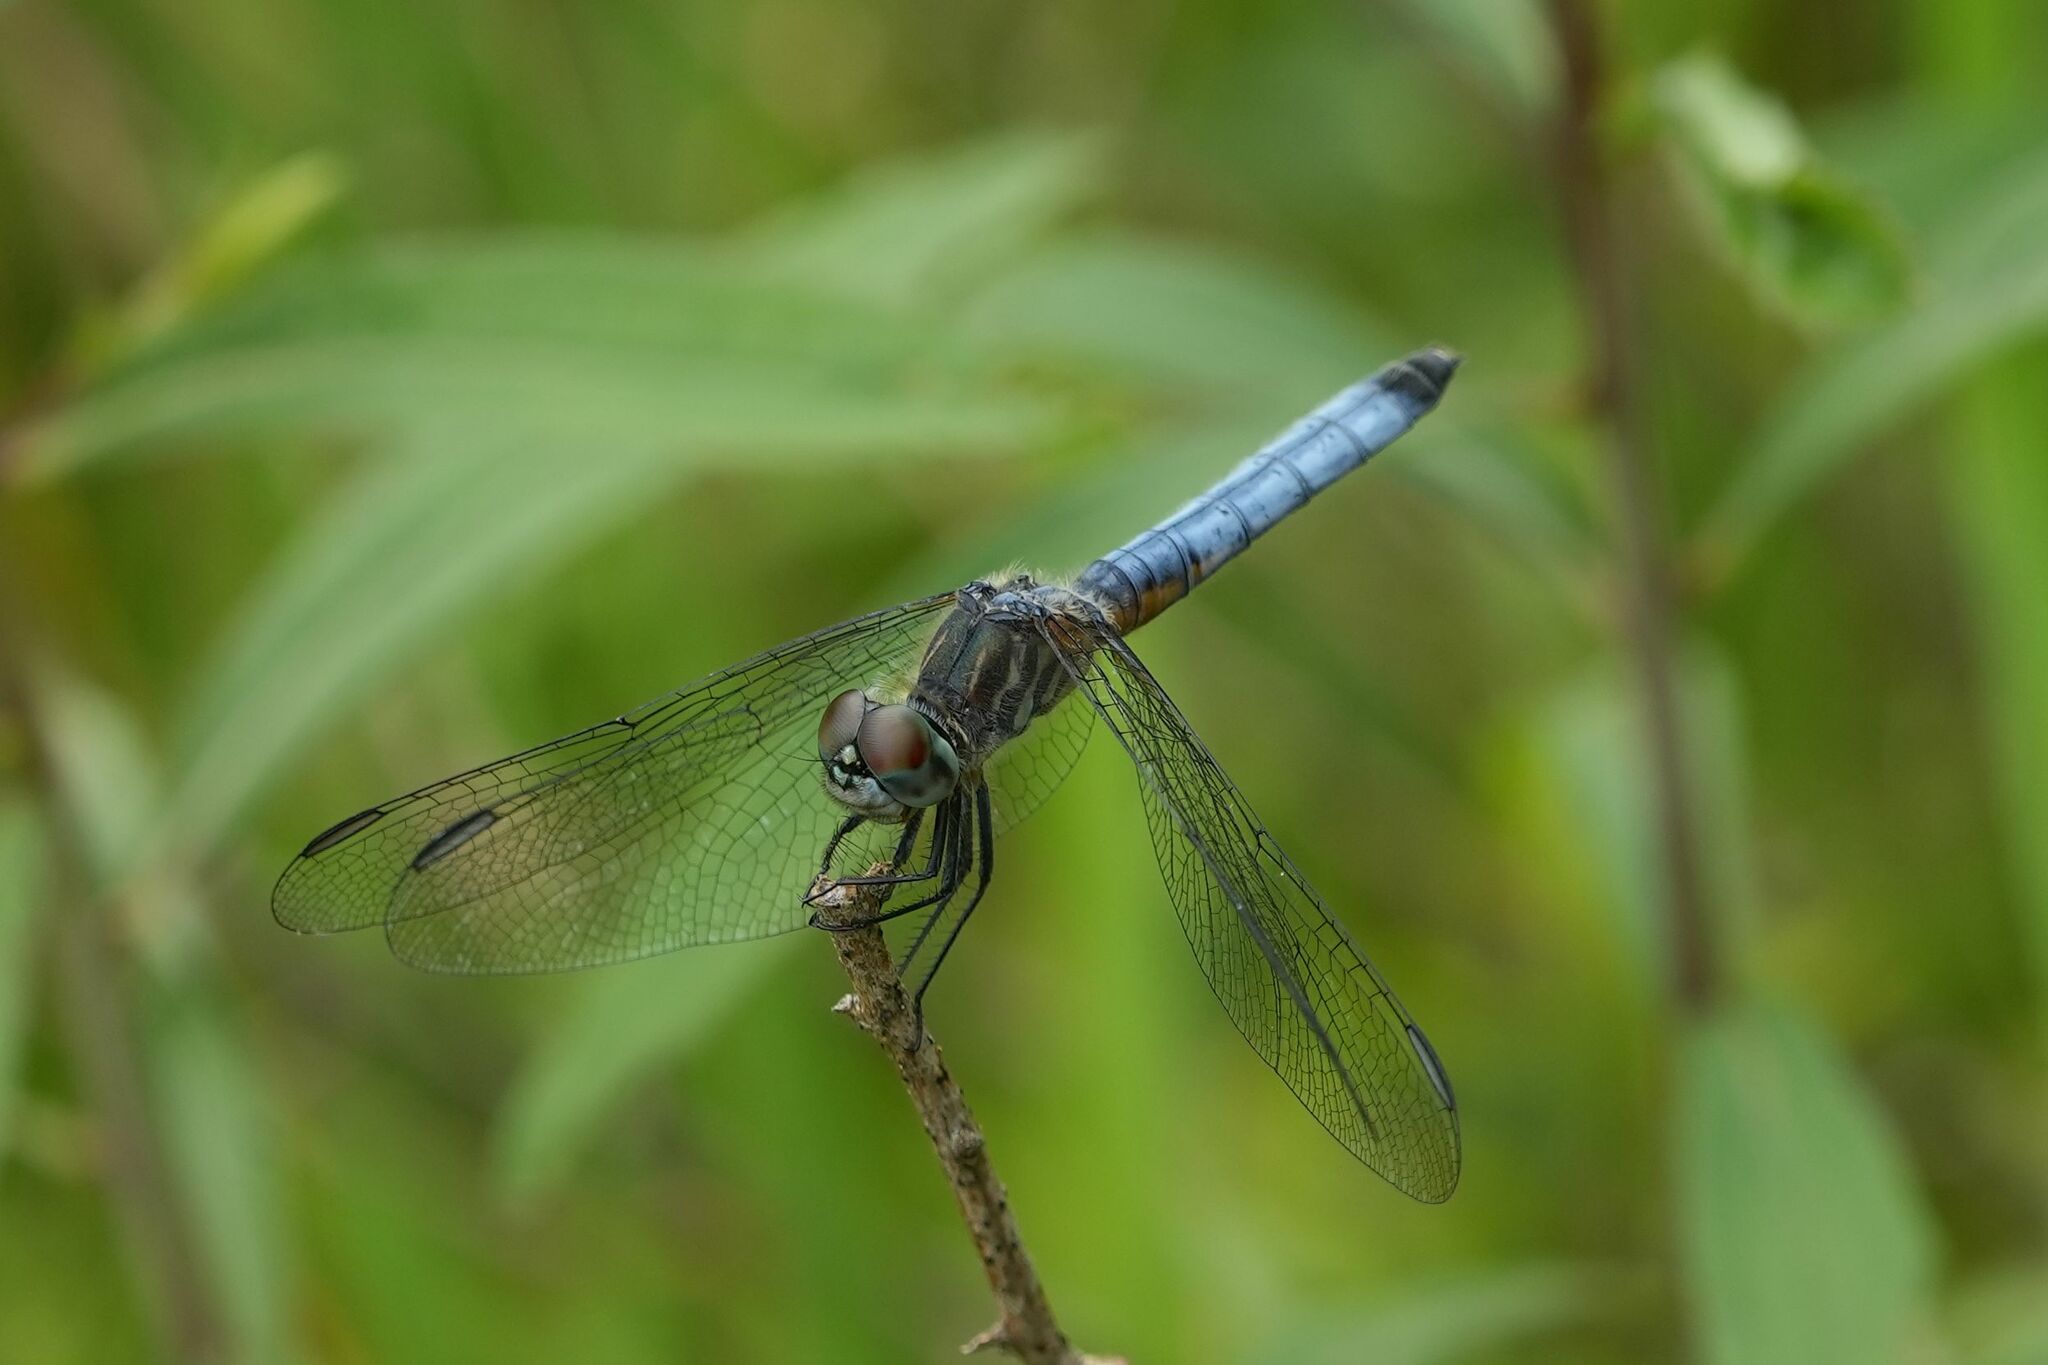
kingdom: Animalia
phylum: Arthropoda
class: Insecta
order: Odonata
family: Libellulidae
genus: Pachydiplax
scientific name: Pachydiplax longipennis
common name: Blue dasher
